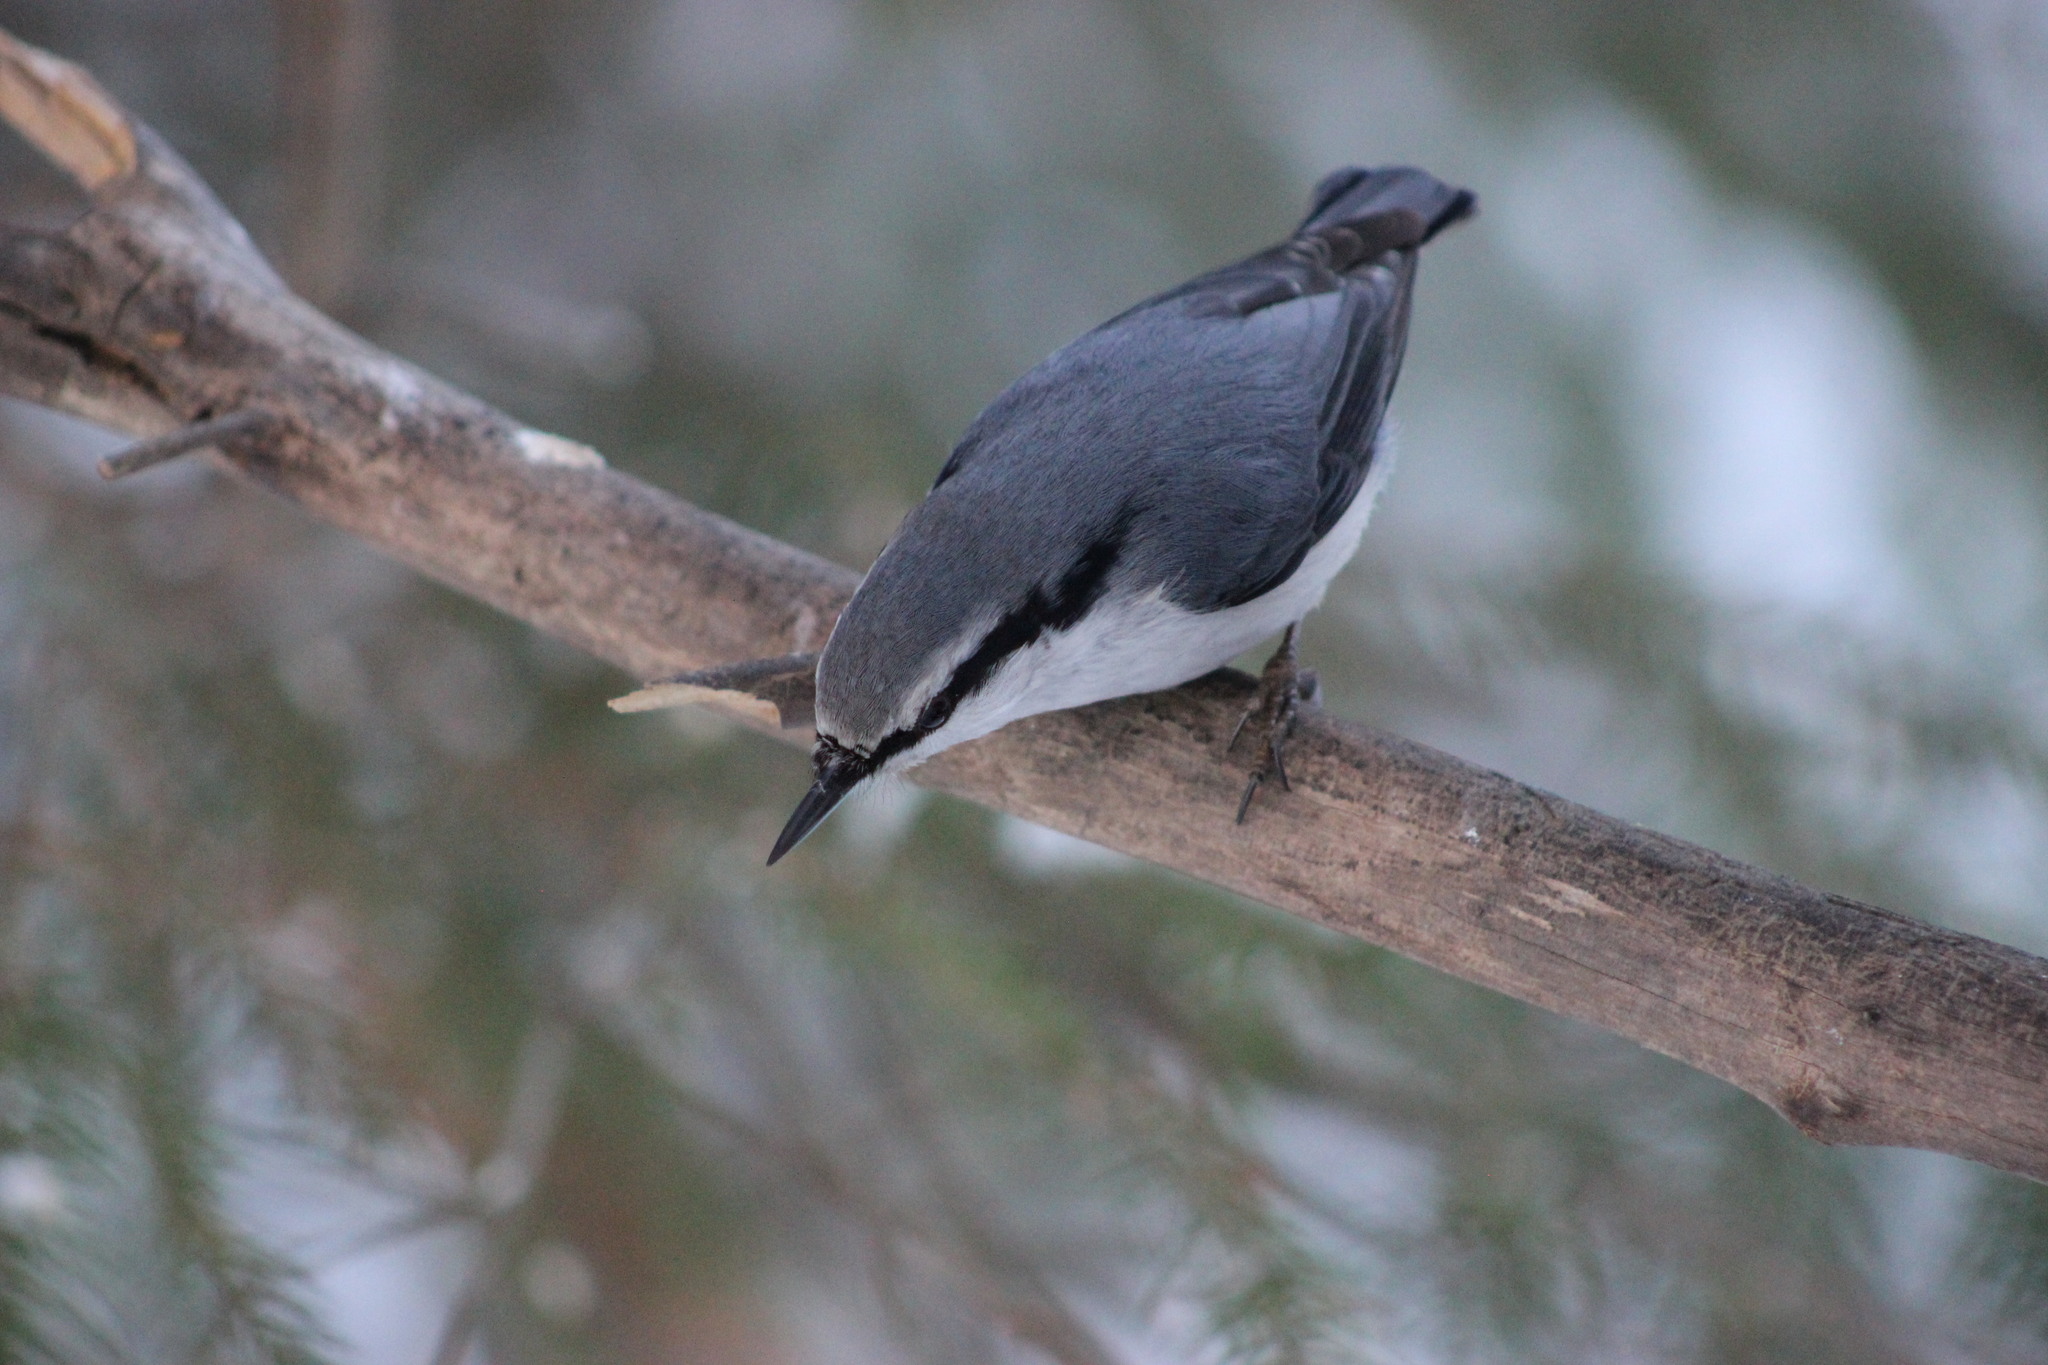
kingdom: Animalia
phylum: Chordata
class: Aves
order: Passeriformes
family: Sittidae
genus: Sitta
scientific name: Sitta europaea
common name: Eurasian nuthatch
